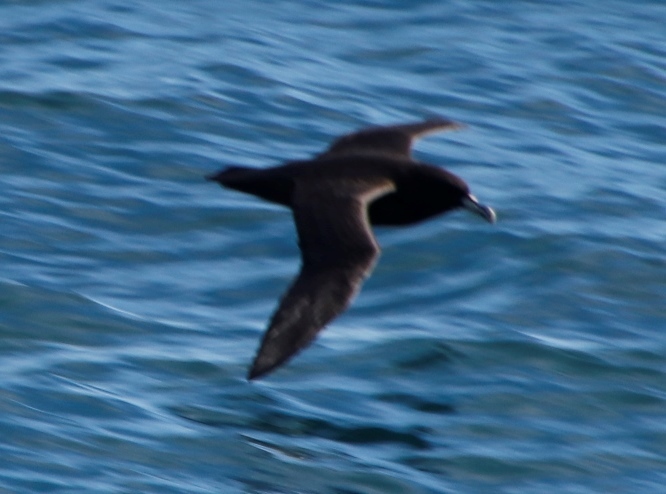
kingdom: Animalia
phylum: Chordata
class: Aves
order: Procellariiformes
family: Procellariidae
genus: Procellaria
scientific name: Procellaria aequinoctialis
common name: White-chinned petrel
